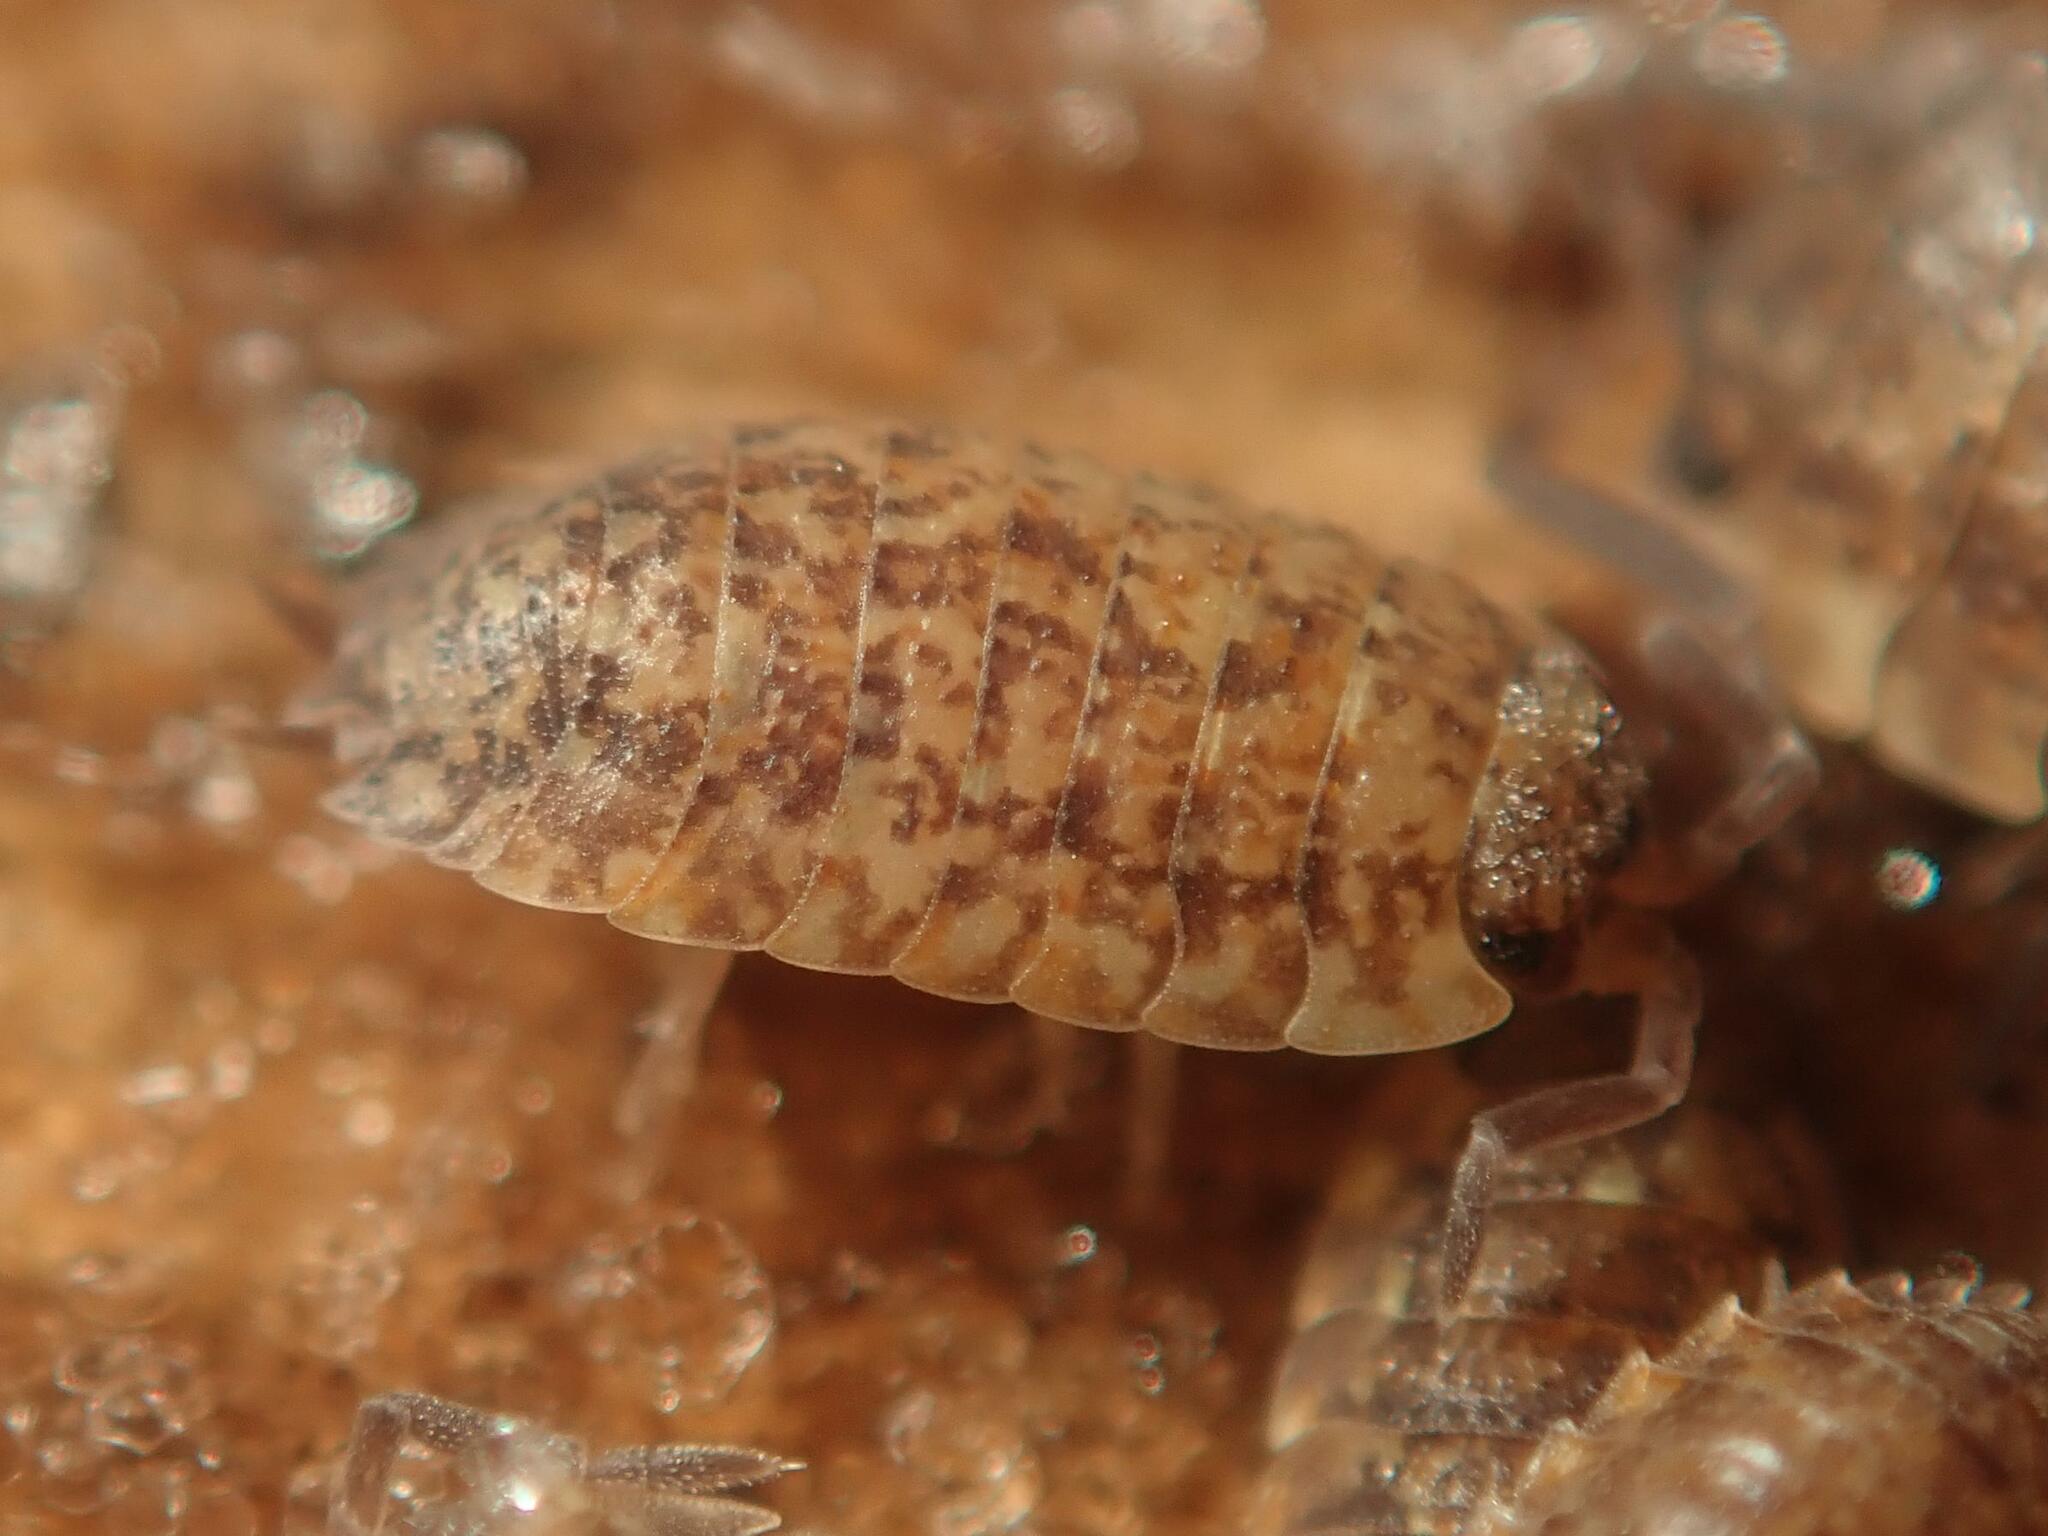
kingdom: Animalia
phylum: Arthropoda
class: Malacostraca
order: Isopoda
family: Porcellionidae
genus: Porcellio
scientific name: Porcellio scaber
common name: Common rough woodlouse
